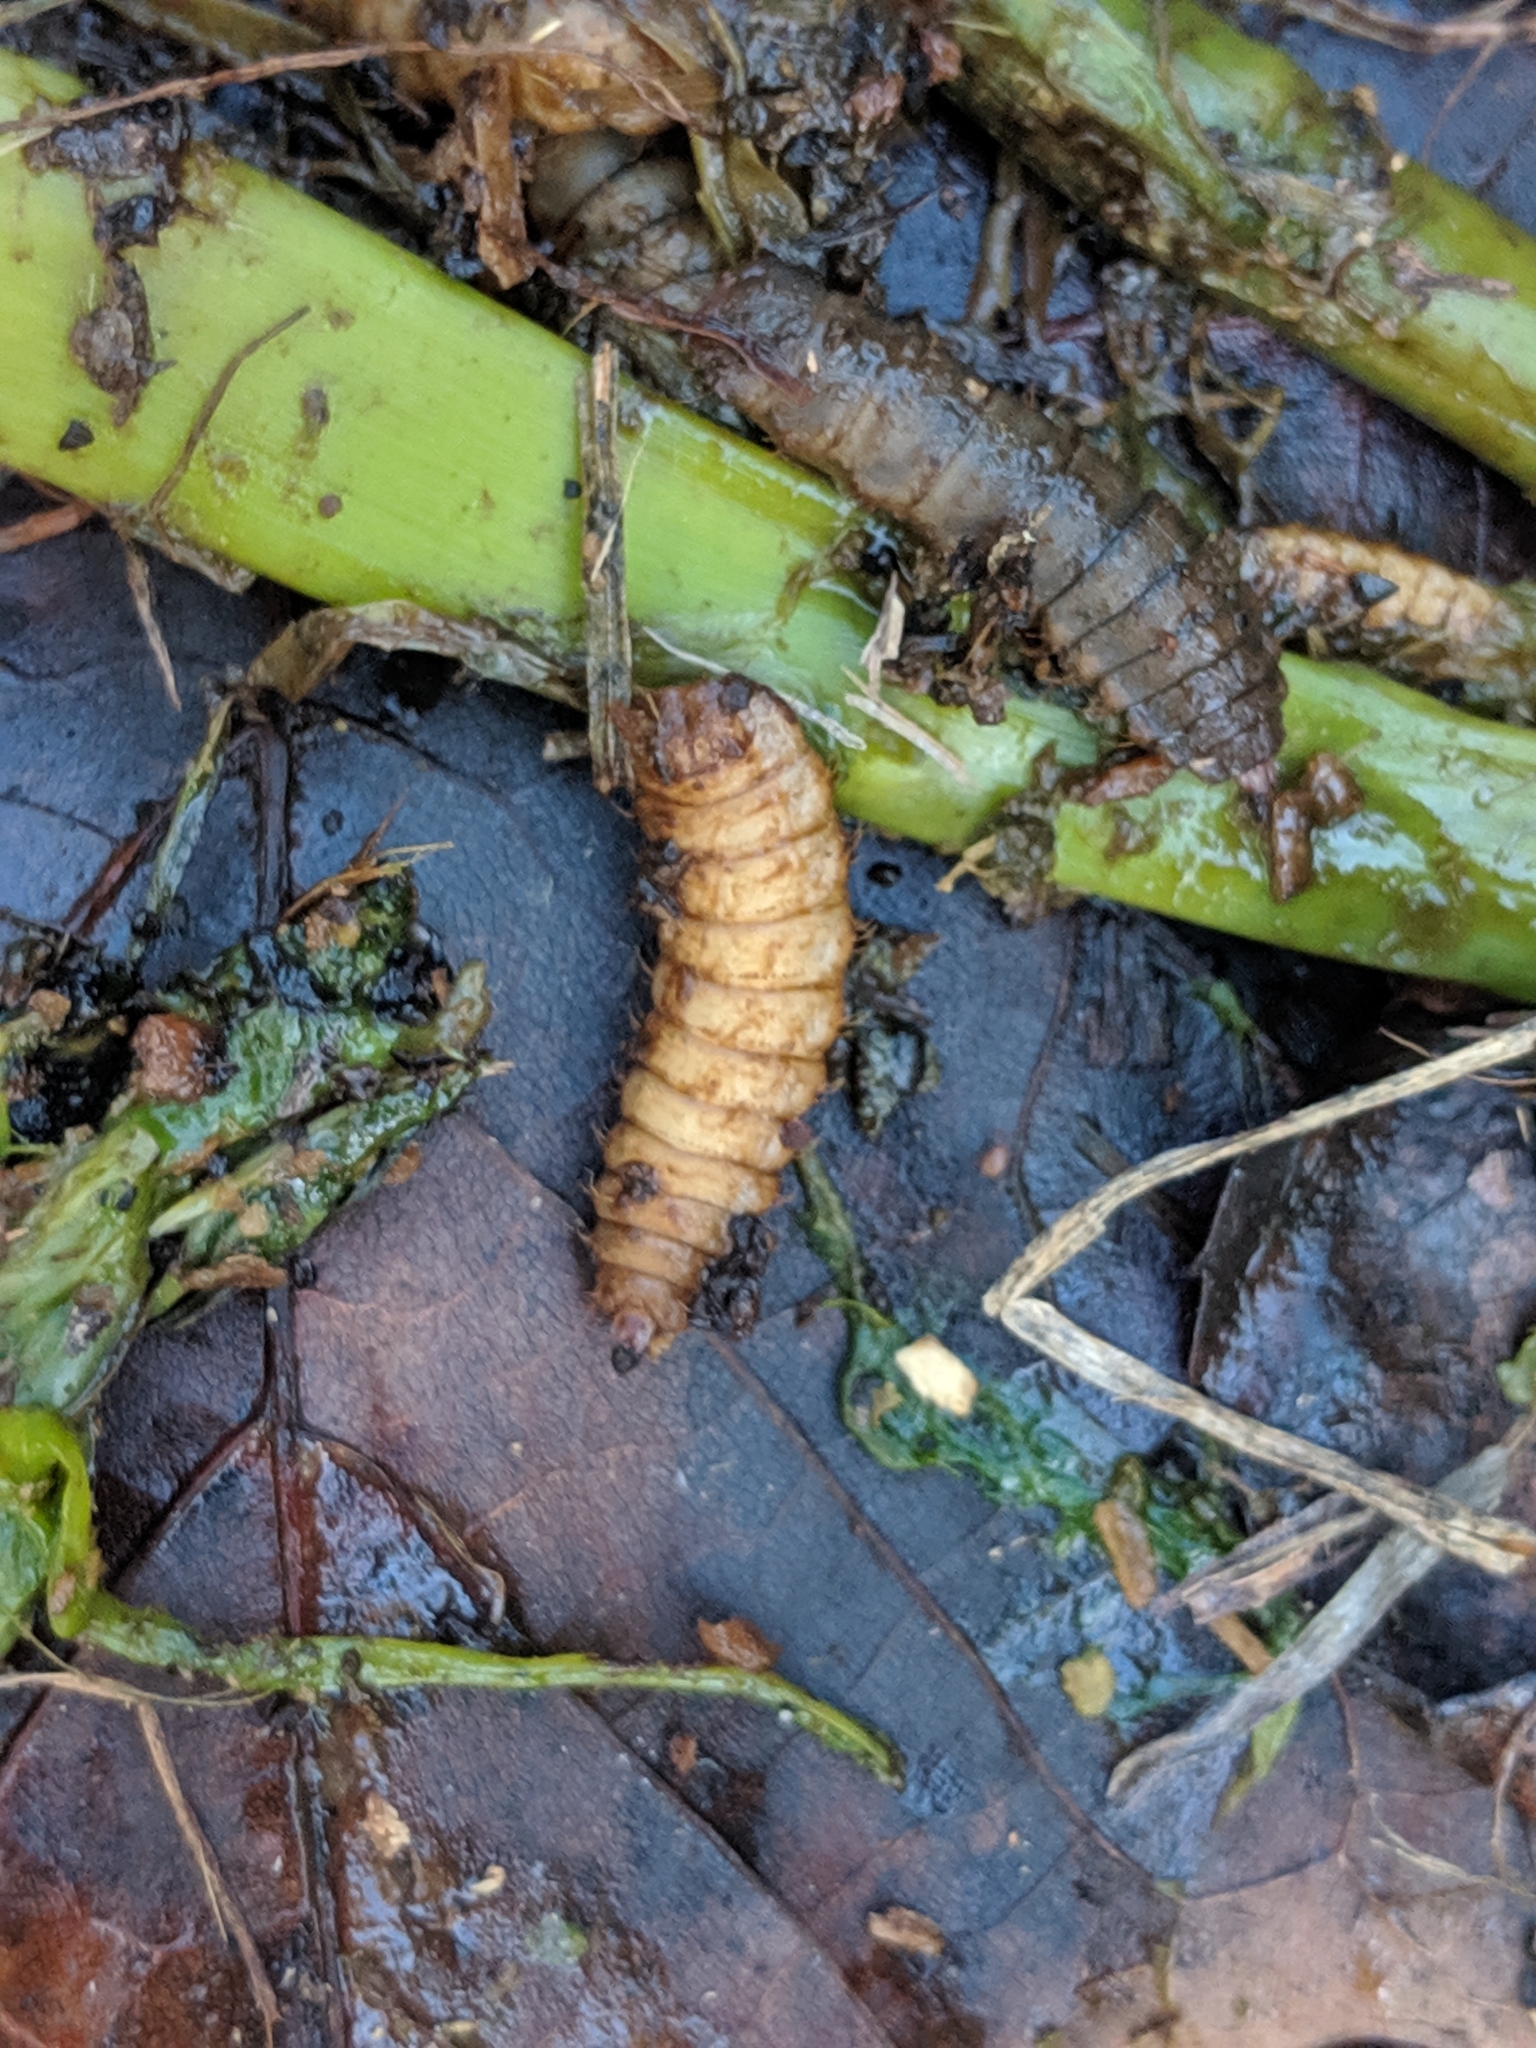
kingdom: Animalia
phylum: Arthropoda
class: Insecta
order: Diptera
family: Stratiomyidae
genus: Hermetia
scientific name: Hermetia illucens
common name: Black soldier fly
